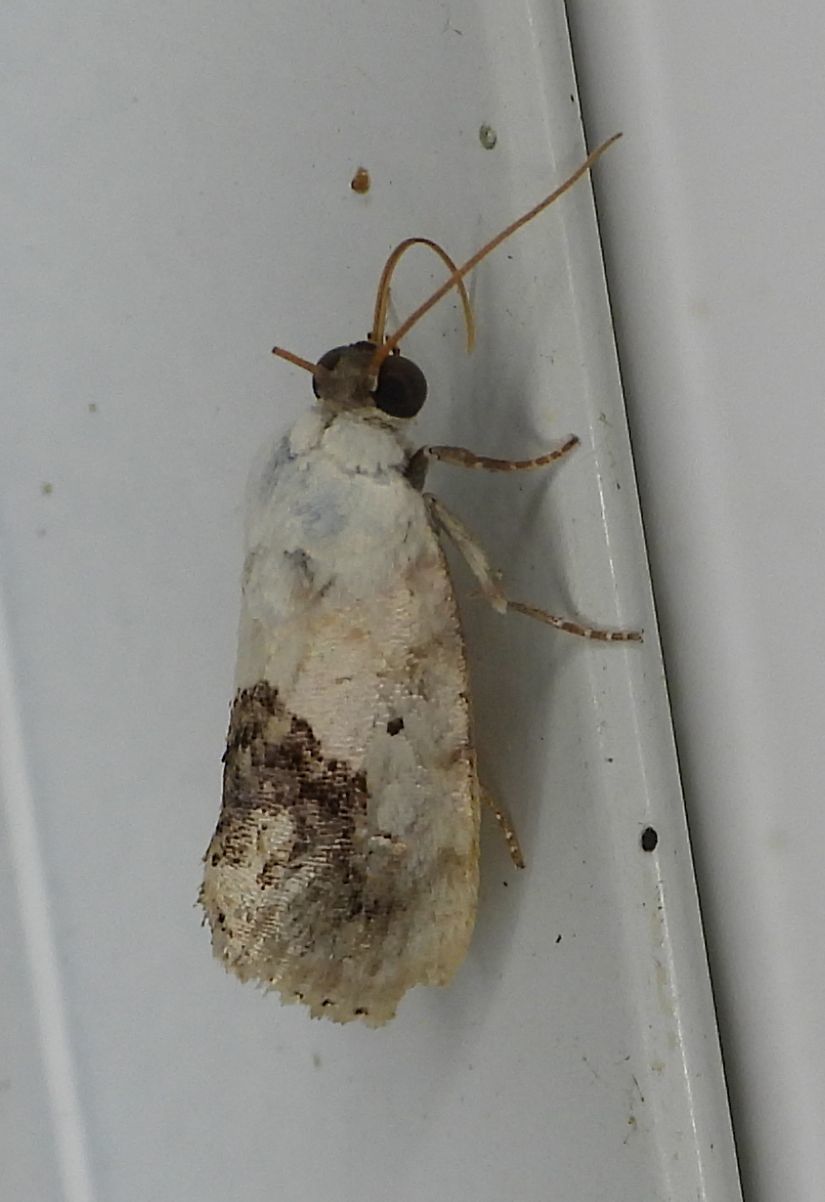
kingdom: Animalia
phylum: Arthropoda
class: Insecta
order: Lepidoptera
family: Noctuidae
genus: Acontia
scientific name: Acontia erastrioides
